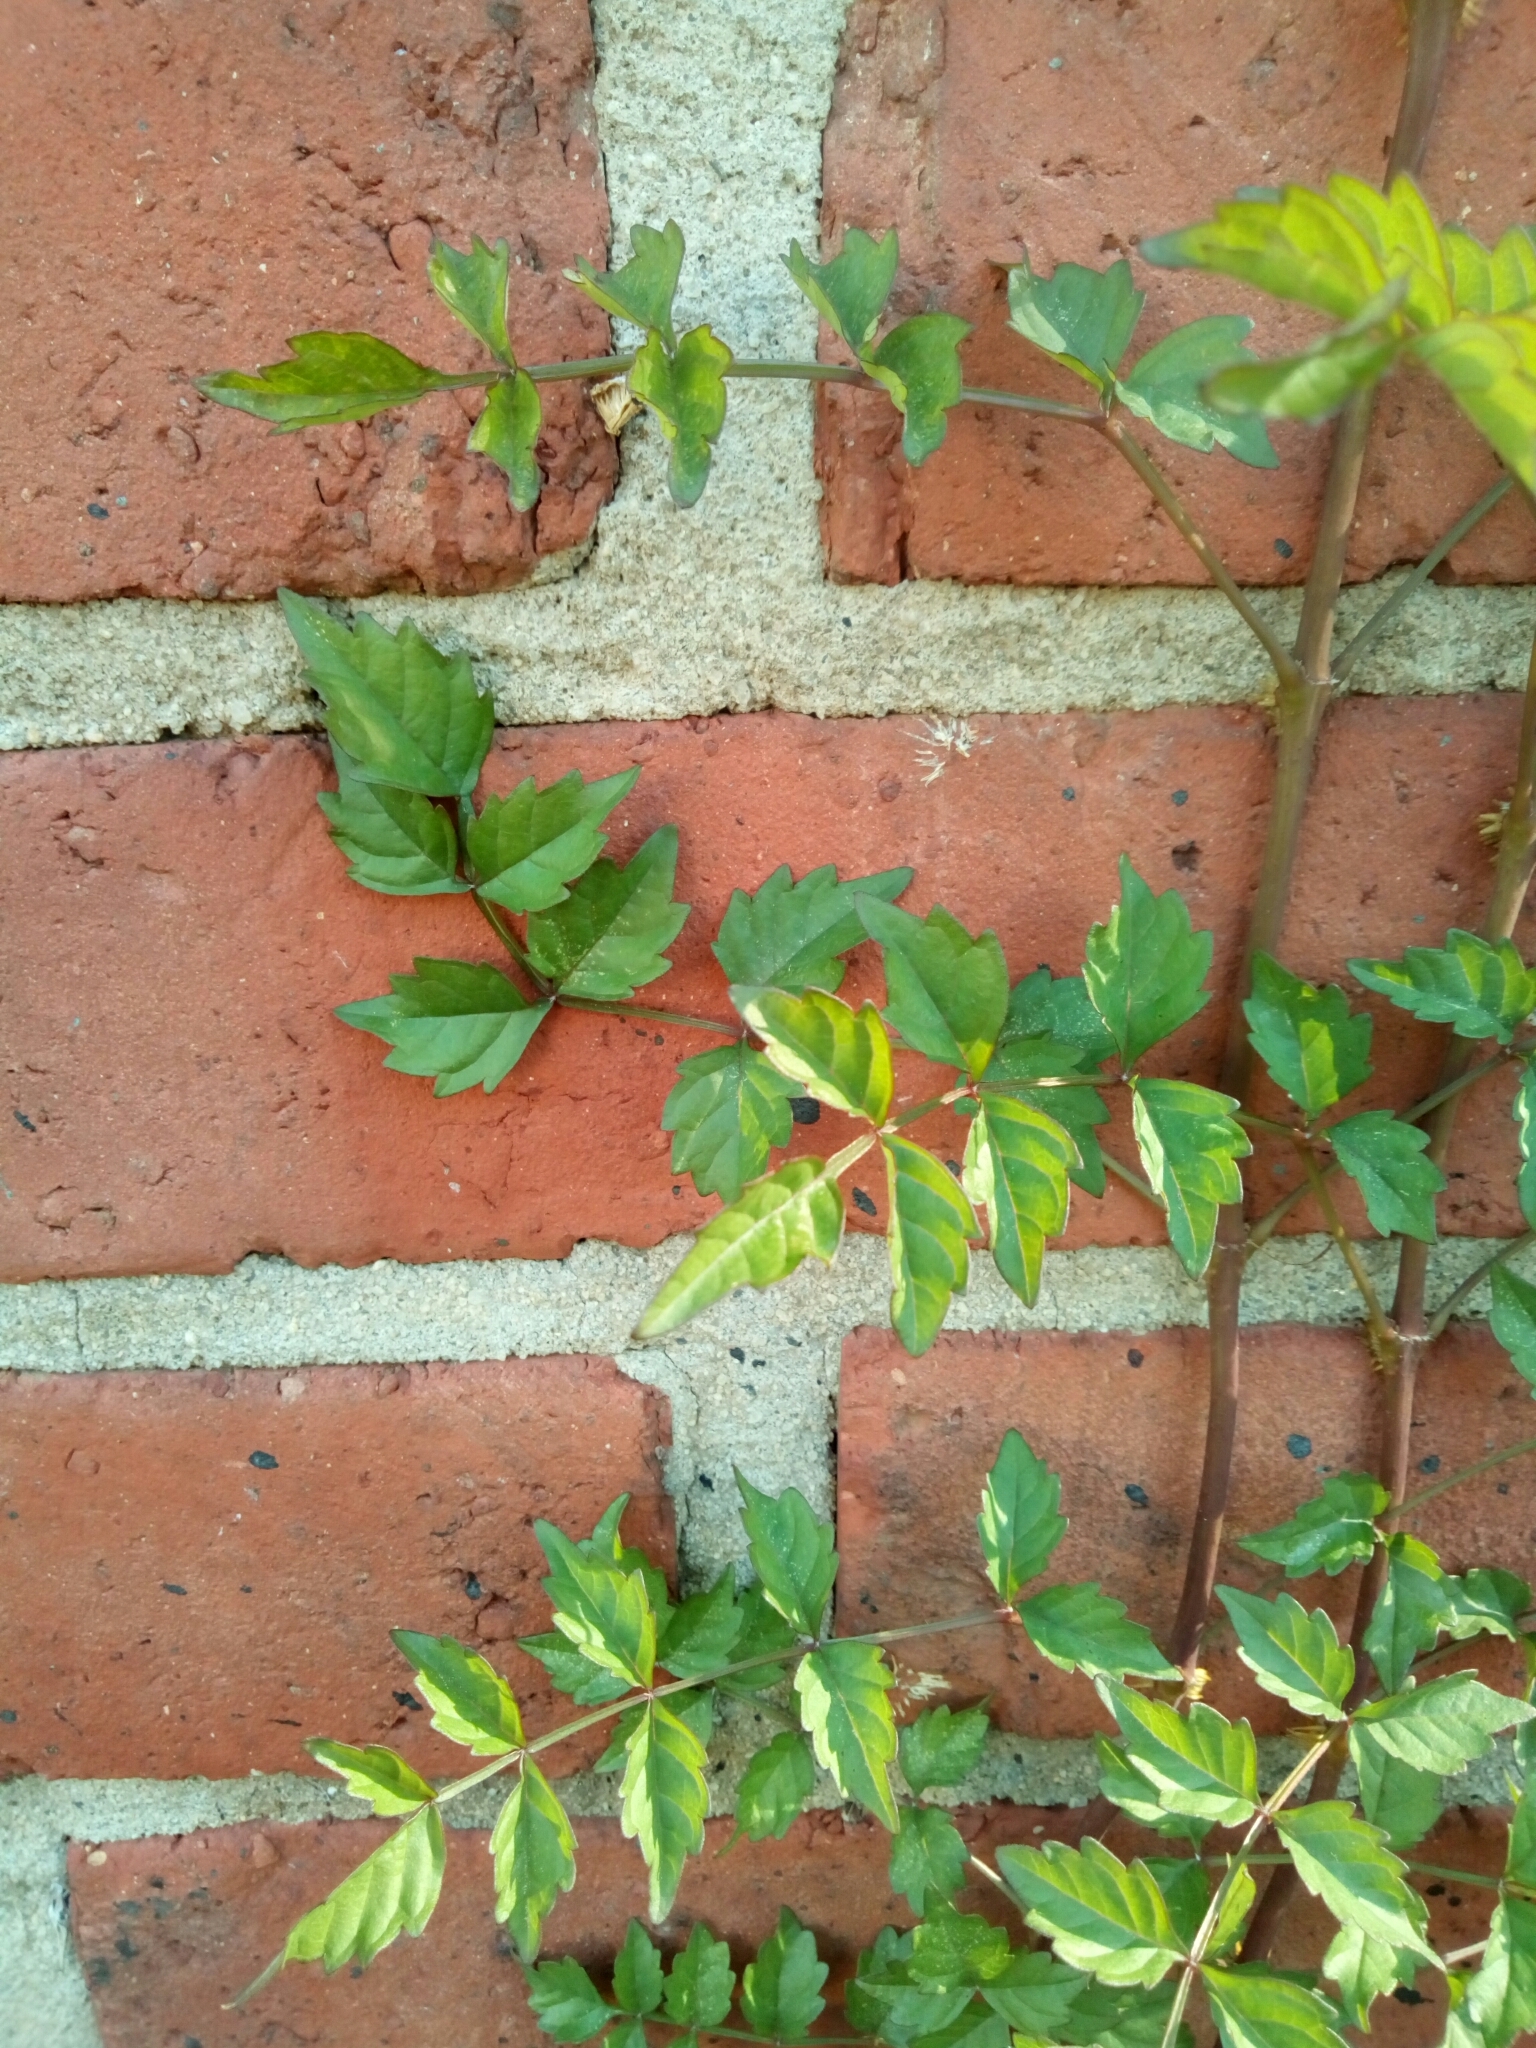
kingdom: Plantae
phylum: Tracheophyta
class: Magnoliopsida
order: Lamiales
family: Bignoniaceae
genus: Campsis
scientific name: Campsis radicans
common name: Trumpet-creeper
